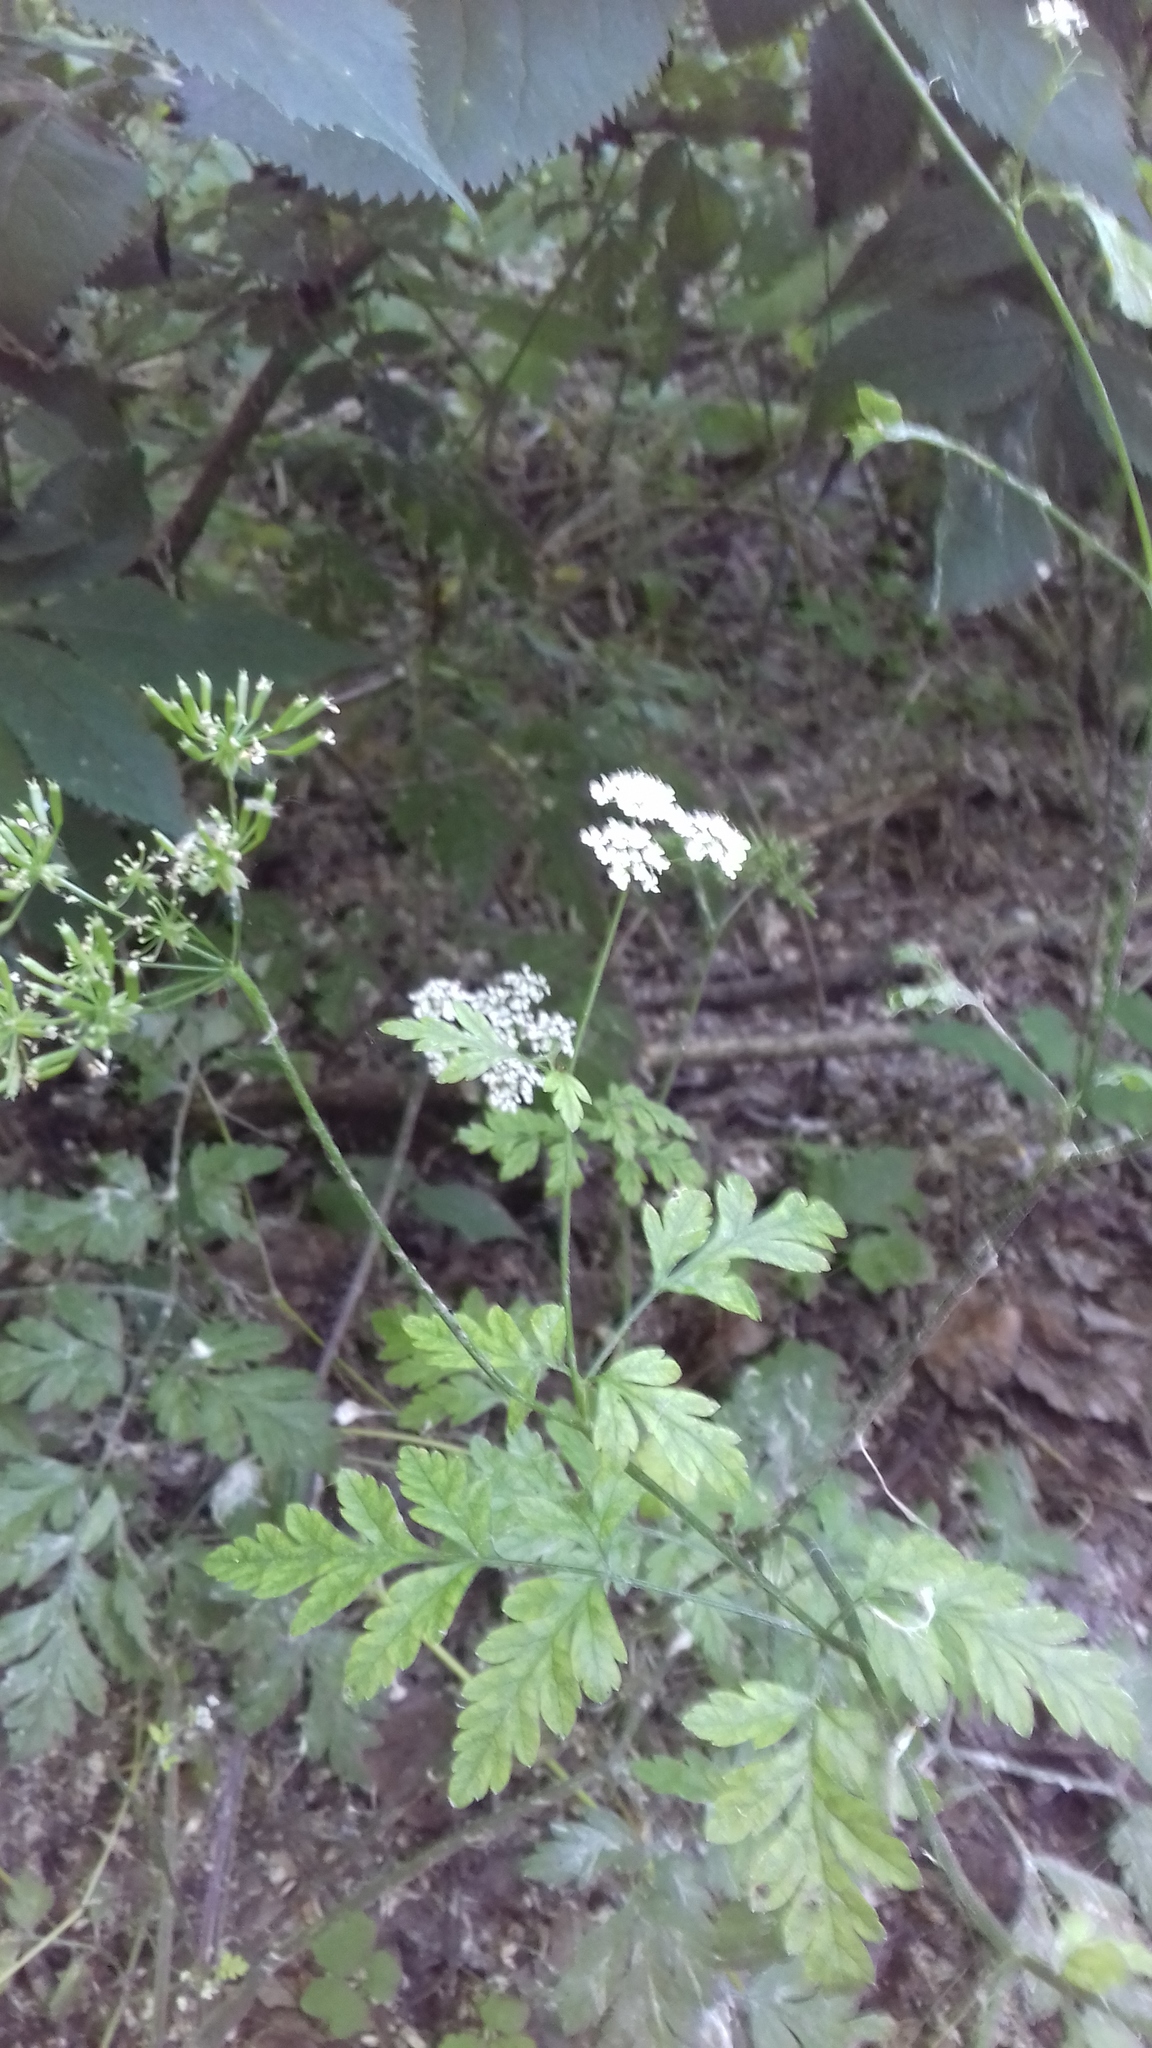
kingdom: Plantae
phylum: Tracheophyta
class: Magnoliopsida
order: Apiales
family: Apiaceae
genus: Chaerophyllum
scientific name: Chaerophyllum temulum
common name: Rough chervil
